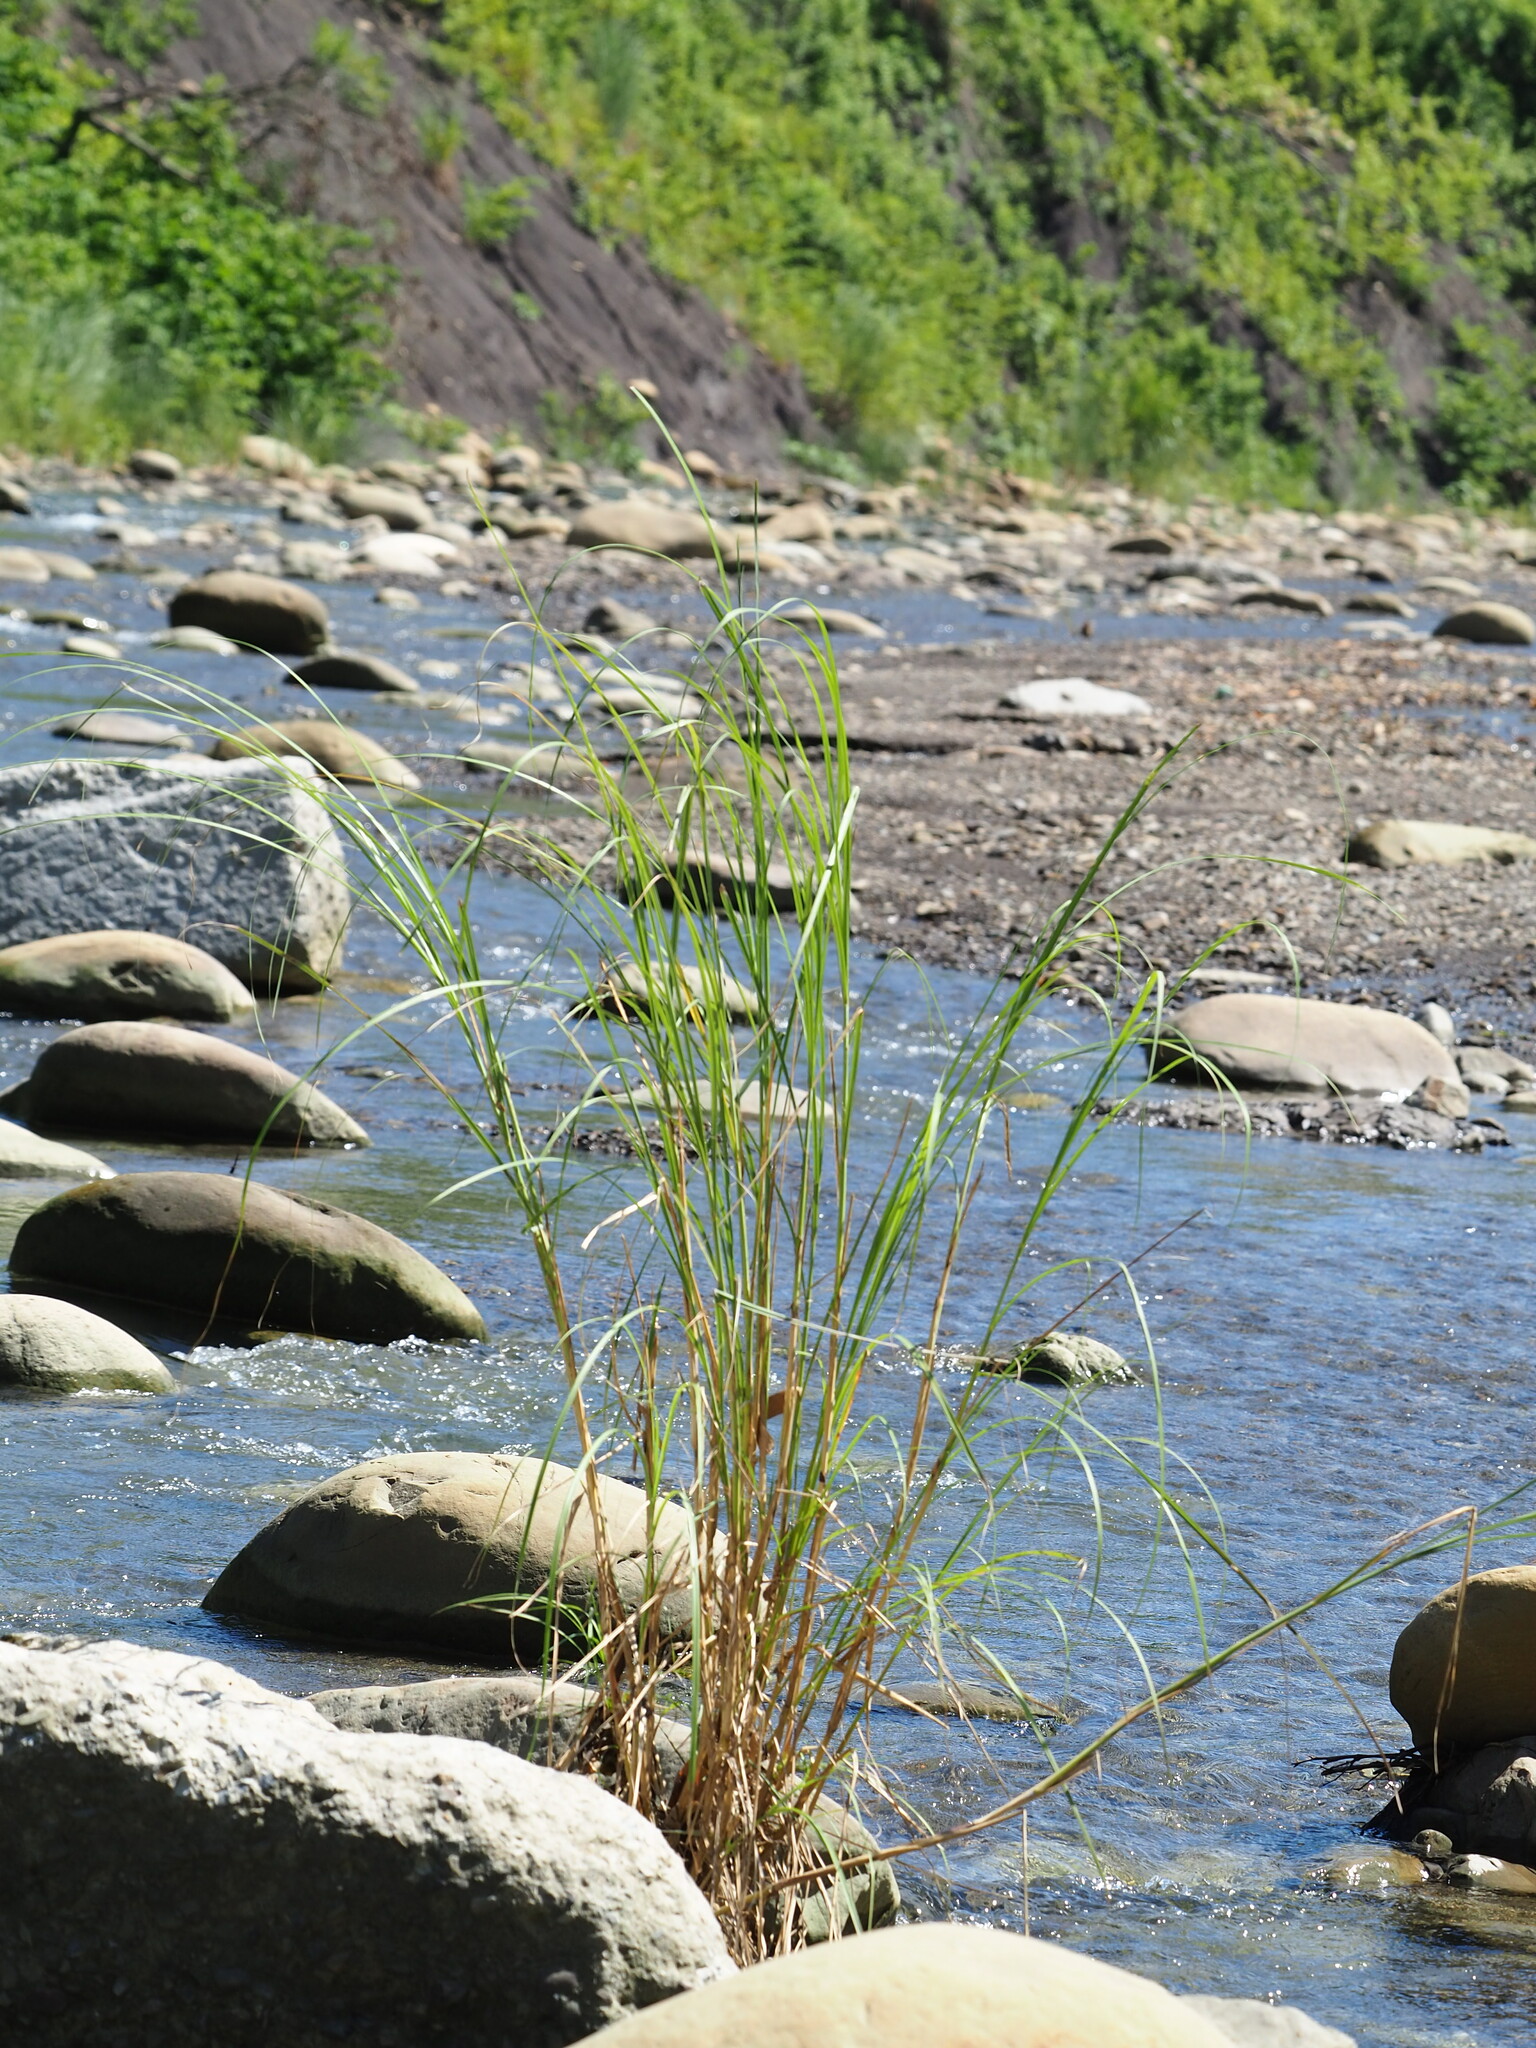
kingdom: Plantae
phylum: Tracheophyta
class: Liliopsida
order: Poales
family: Poaceae
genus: Saccharum
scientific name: Saccharum spontaneum
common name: Wild sugarcane
